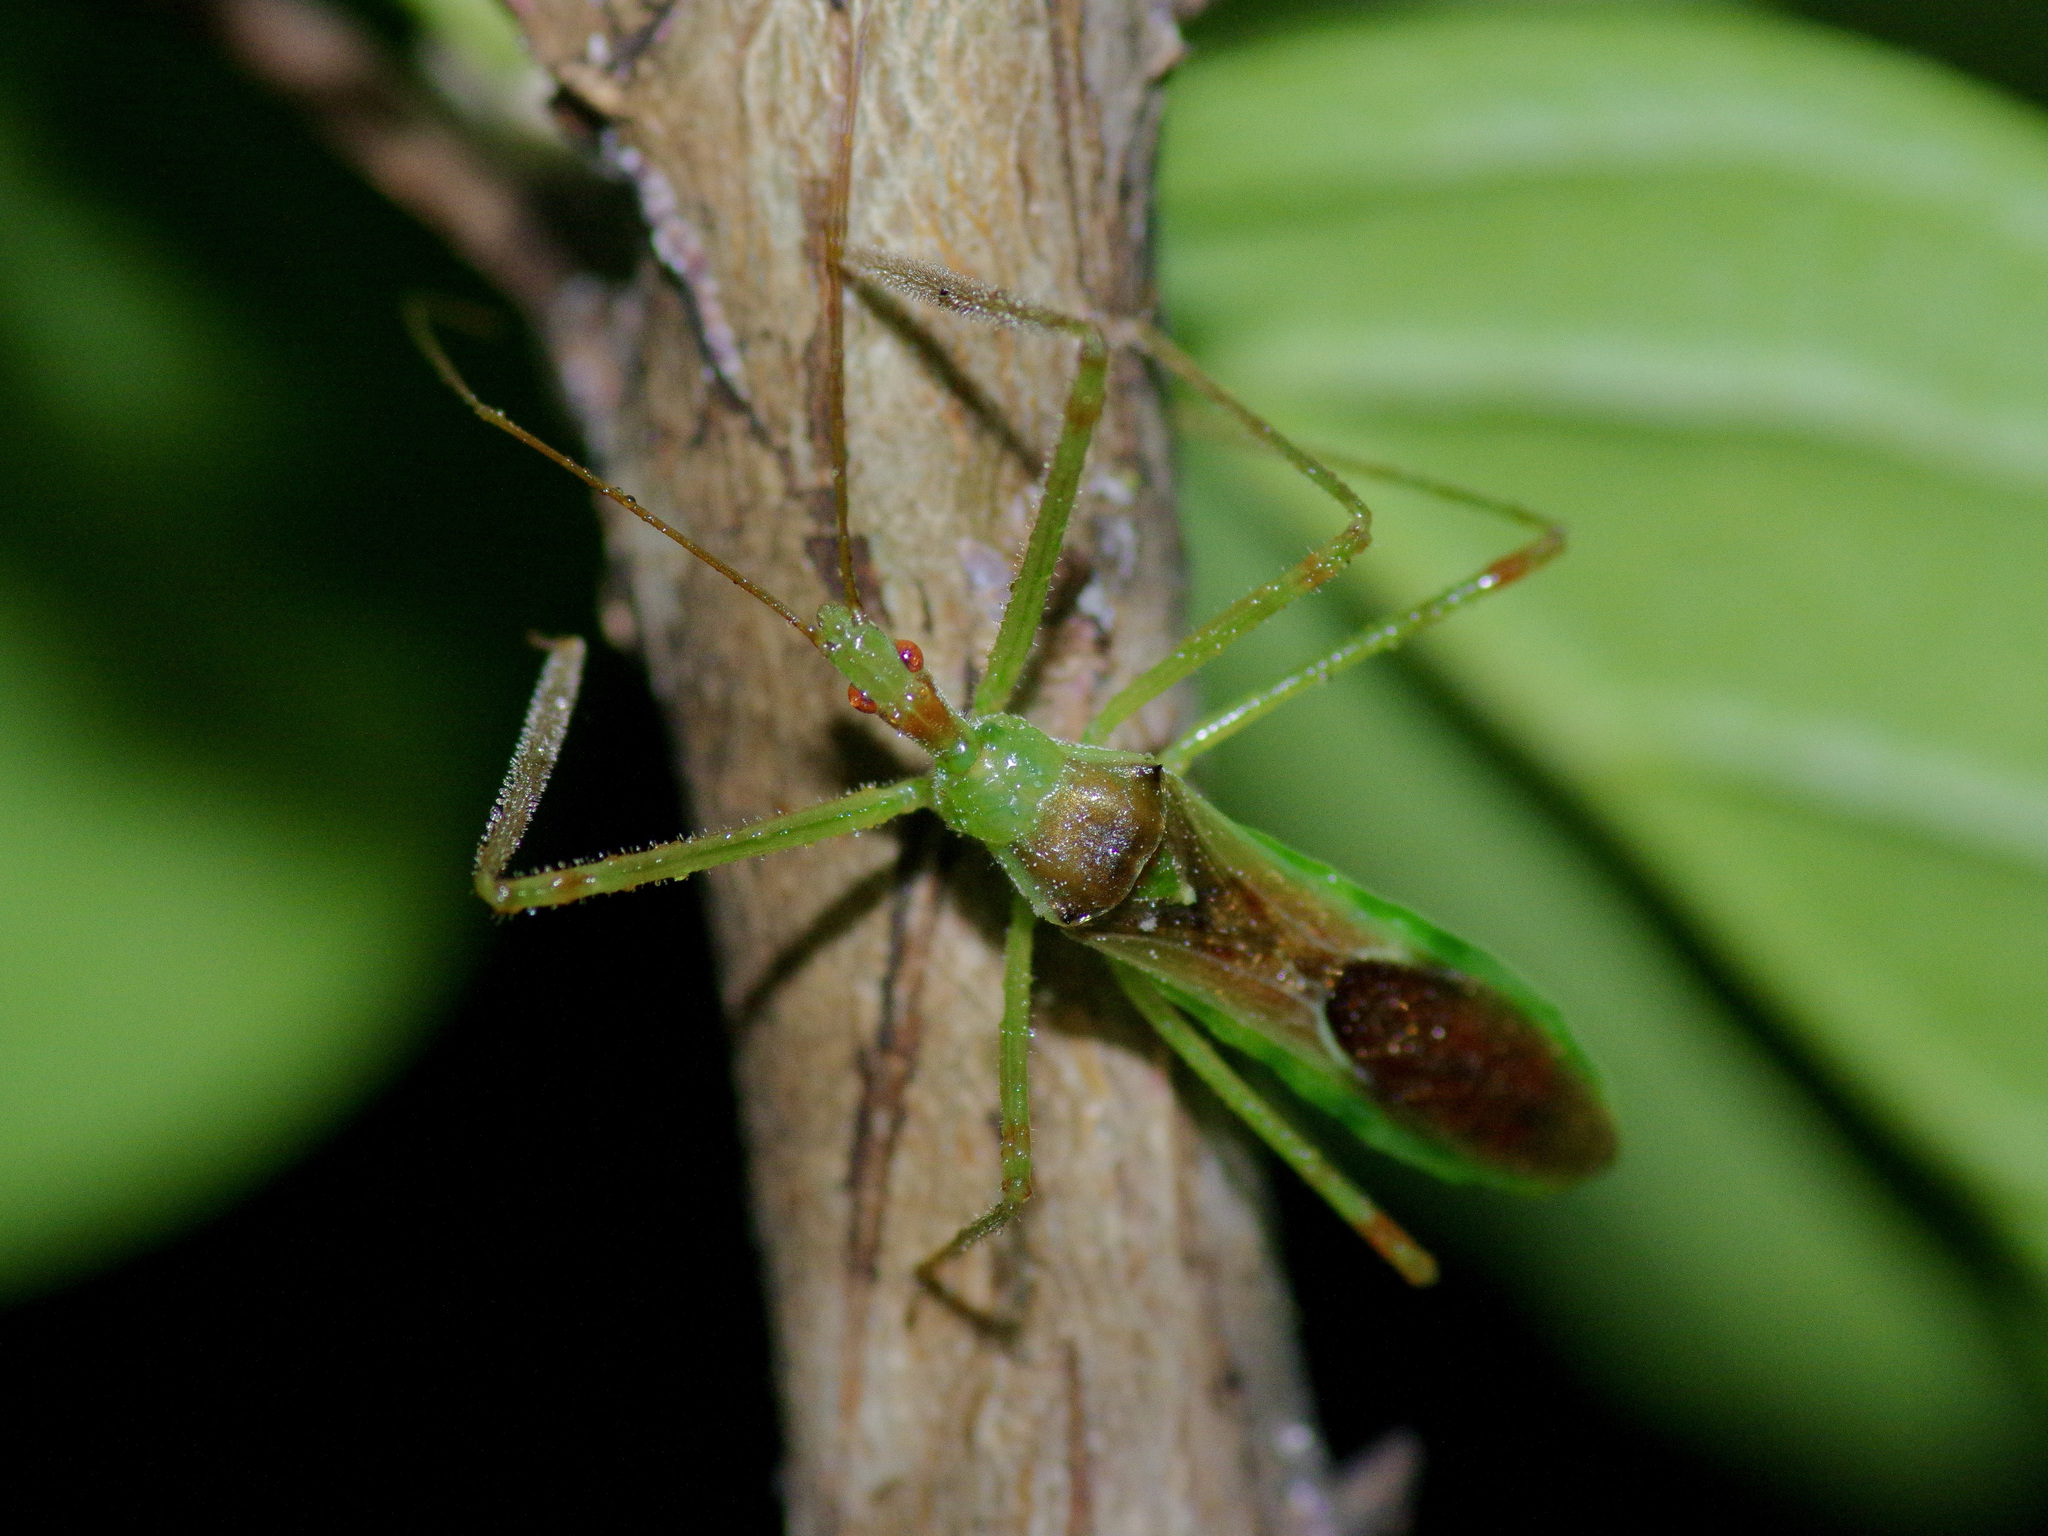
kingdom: Animalia
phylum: Arthropoda
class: Insecta
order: Hemiptera
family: Reduviidae
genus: Zelus
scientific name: Zelus luridus
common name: Pale green assassin bug
